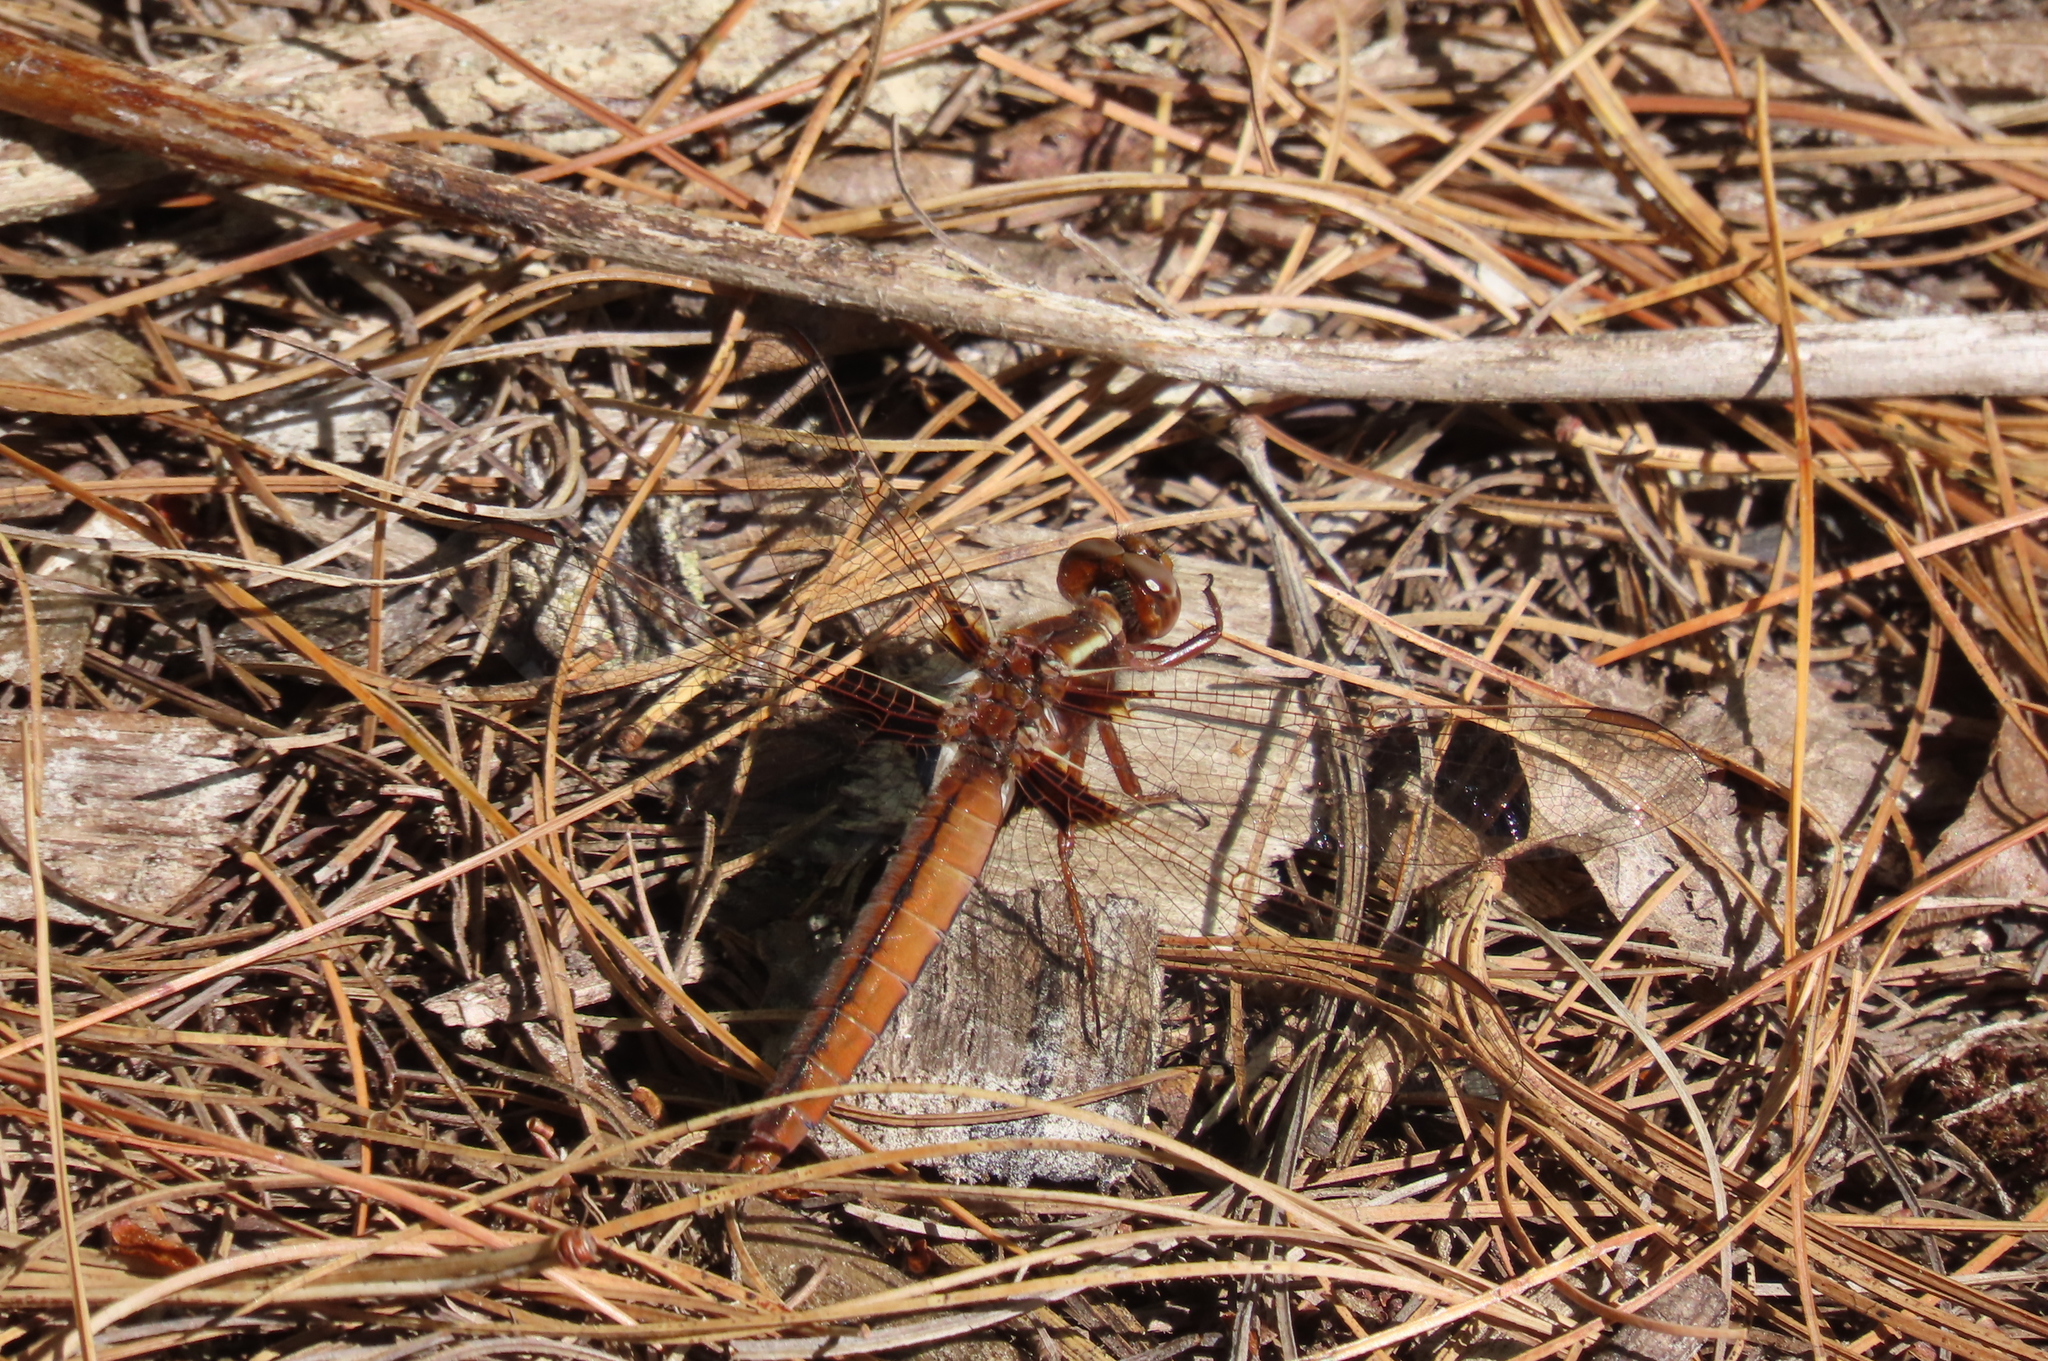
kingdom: Animalia
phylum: Arthropoda
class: Insecta
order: Odonata
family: Libellulidae
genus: Ladona
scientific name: Ladona exusta
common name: Libellule embrasée
